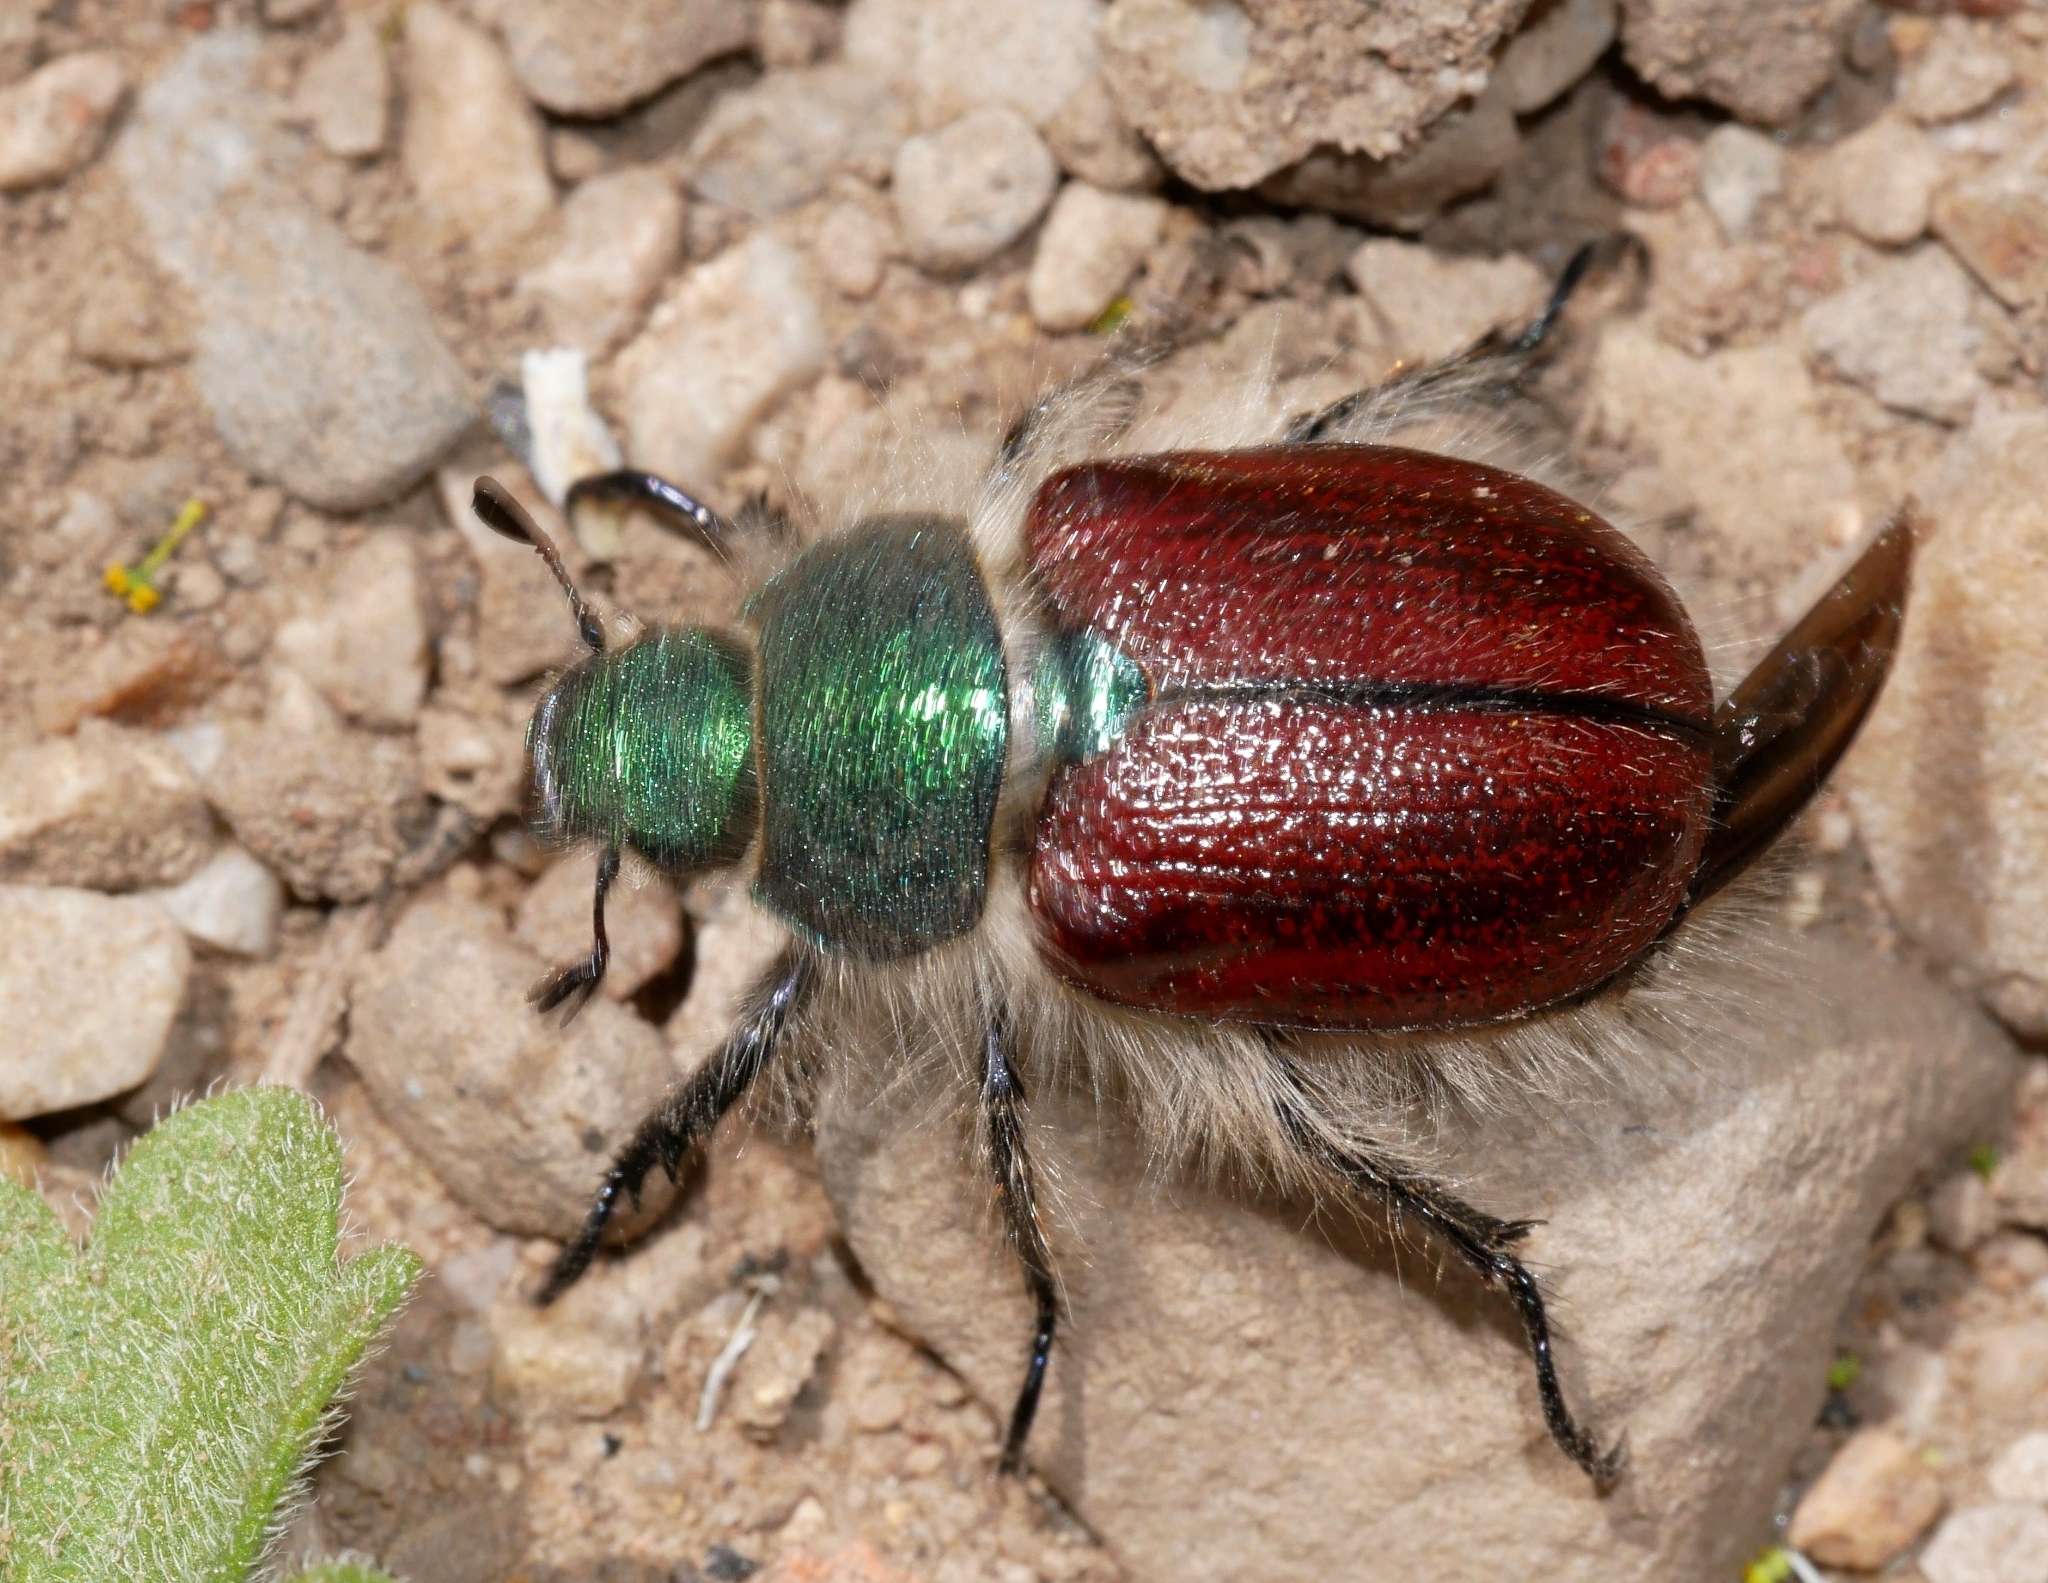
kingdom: Animalia
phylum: Arthropoda
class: Insecta
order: Coleoptera
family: Scarabaeidae
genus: Paracotalpa
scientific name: Paracotalpa granicollis
